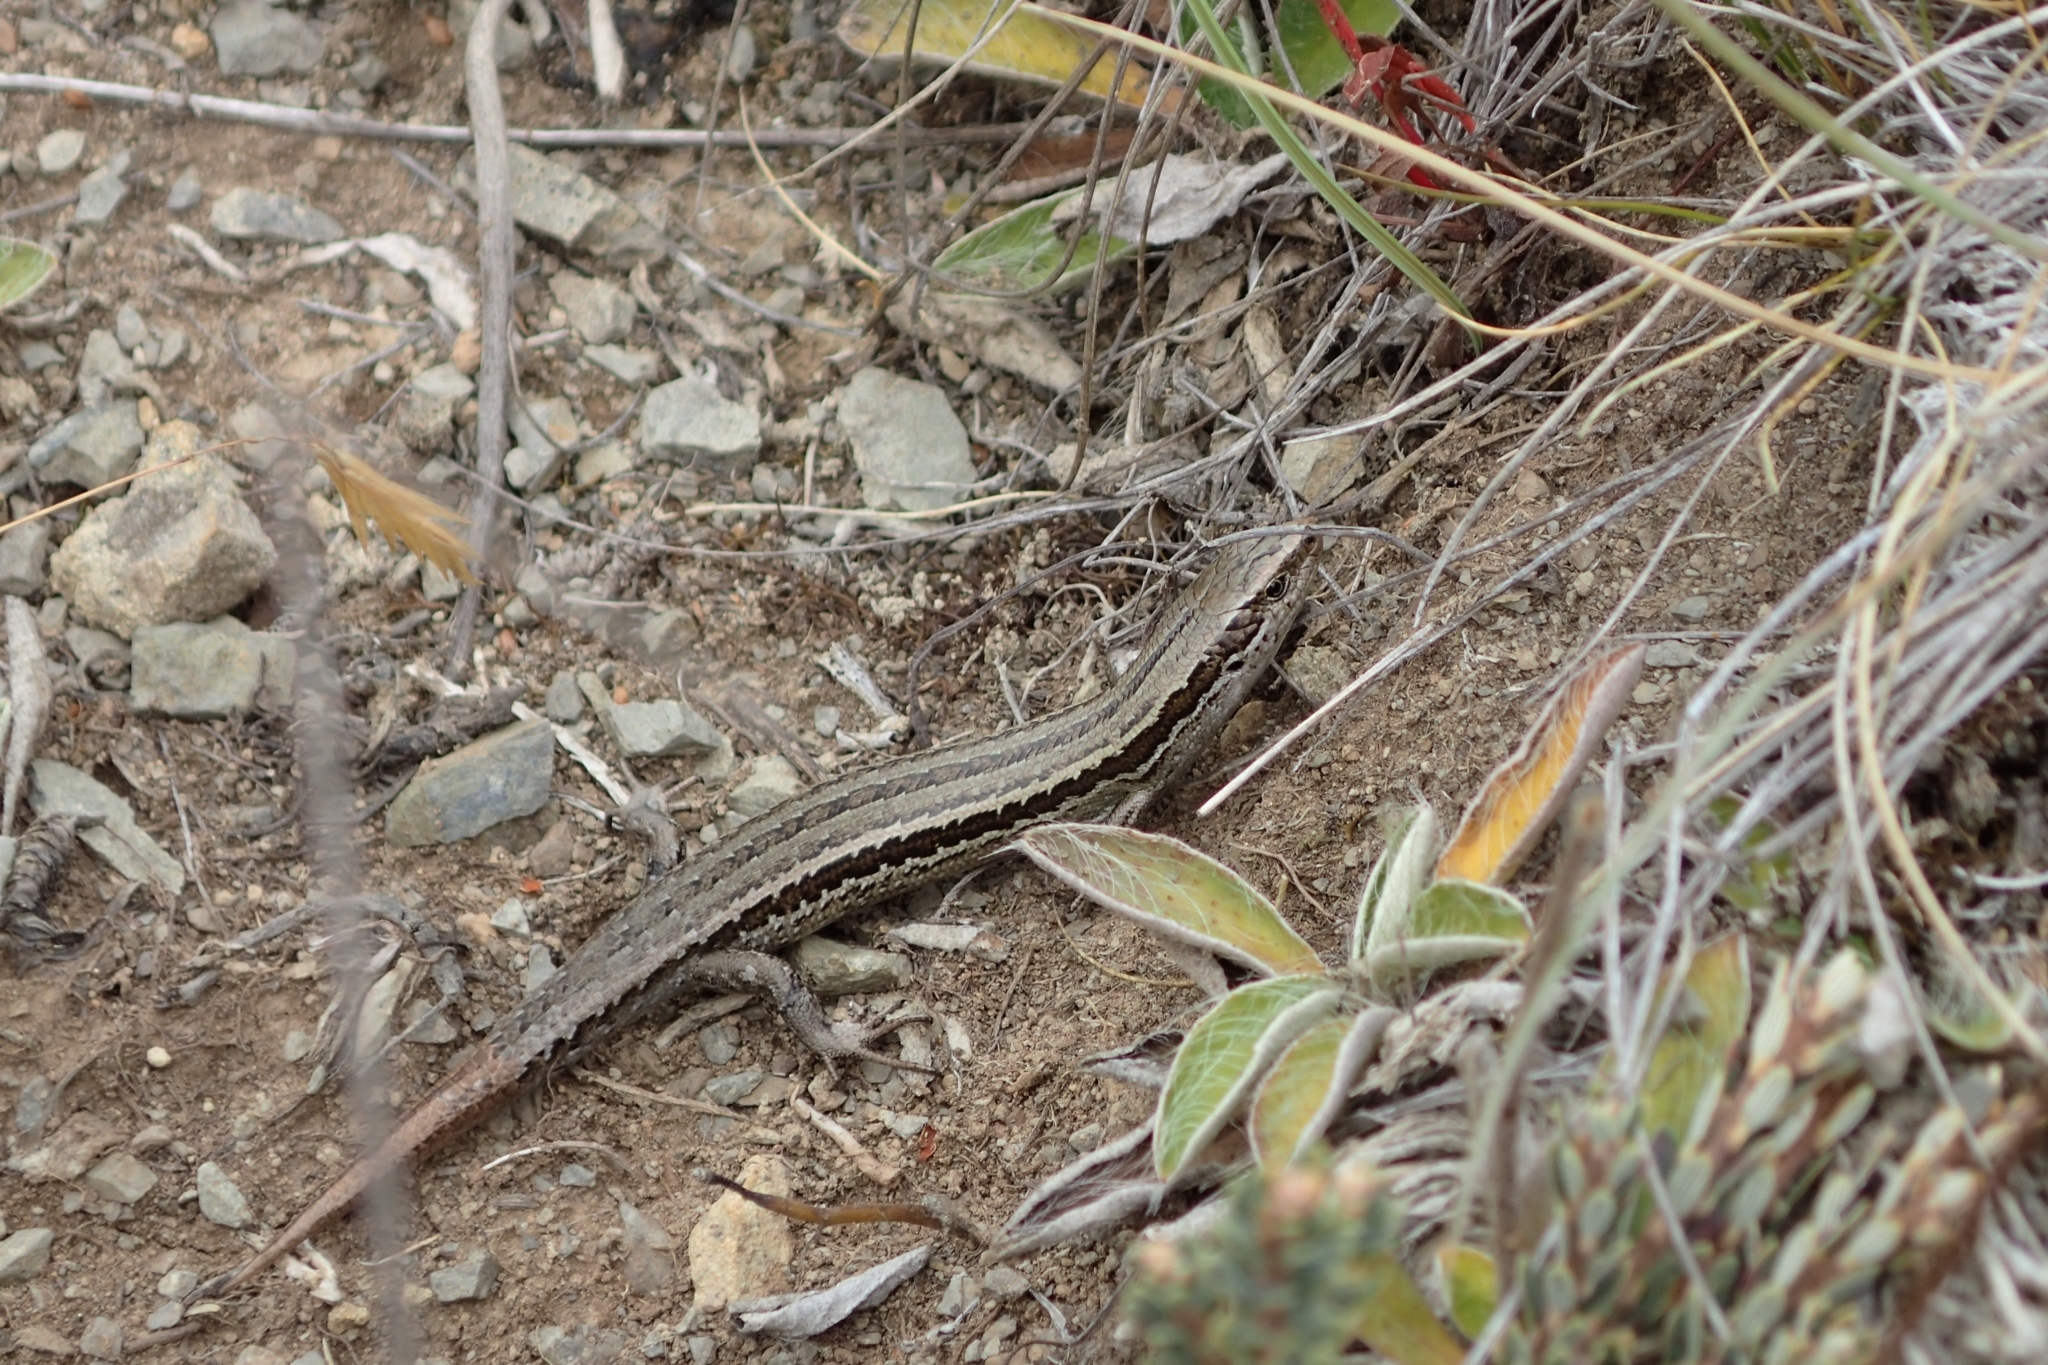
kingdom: Animalia
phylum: Chordata
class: Squamata
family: Scincidae
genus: Oligosoma
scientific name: Oligosoma polychroma
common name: Common new zealand skink
